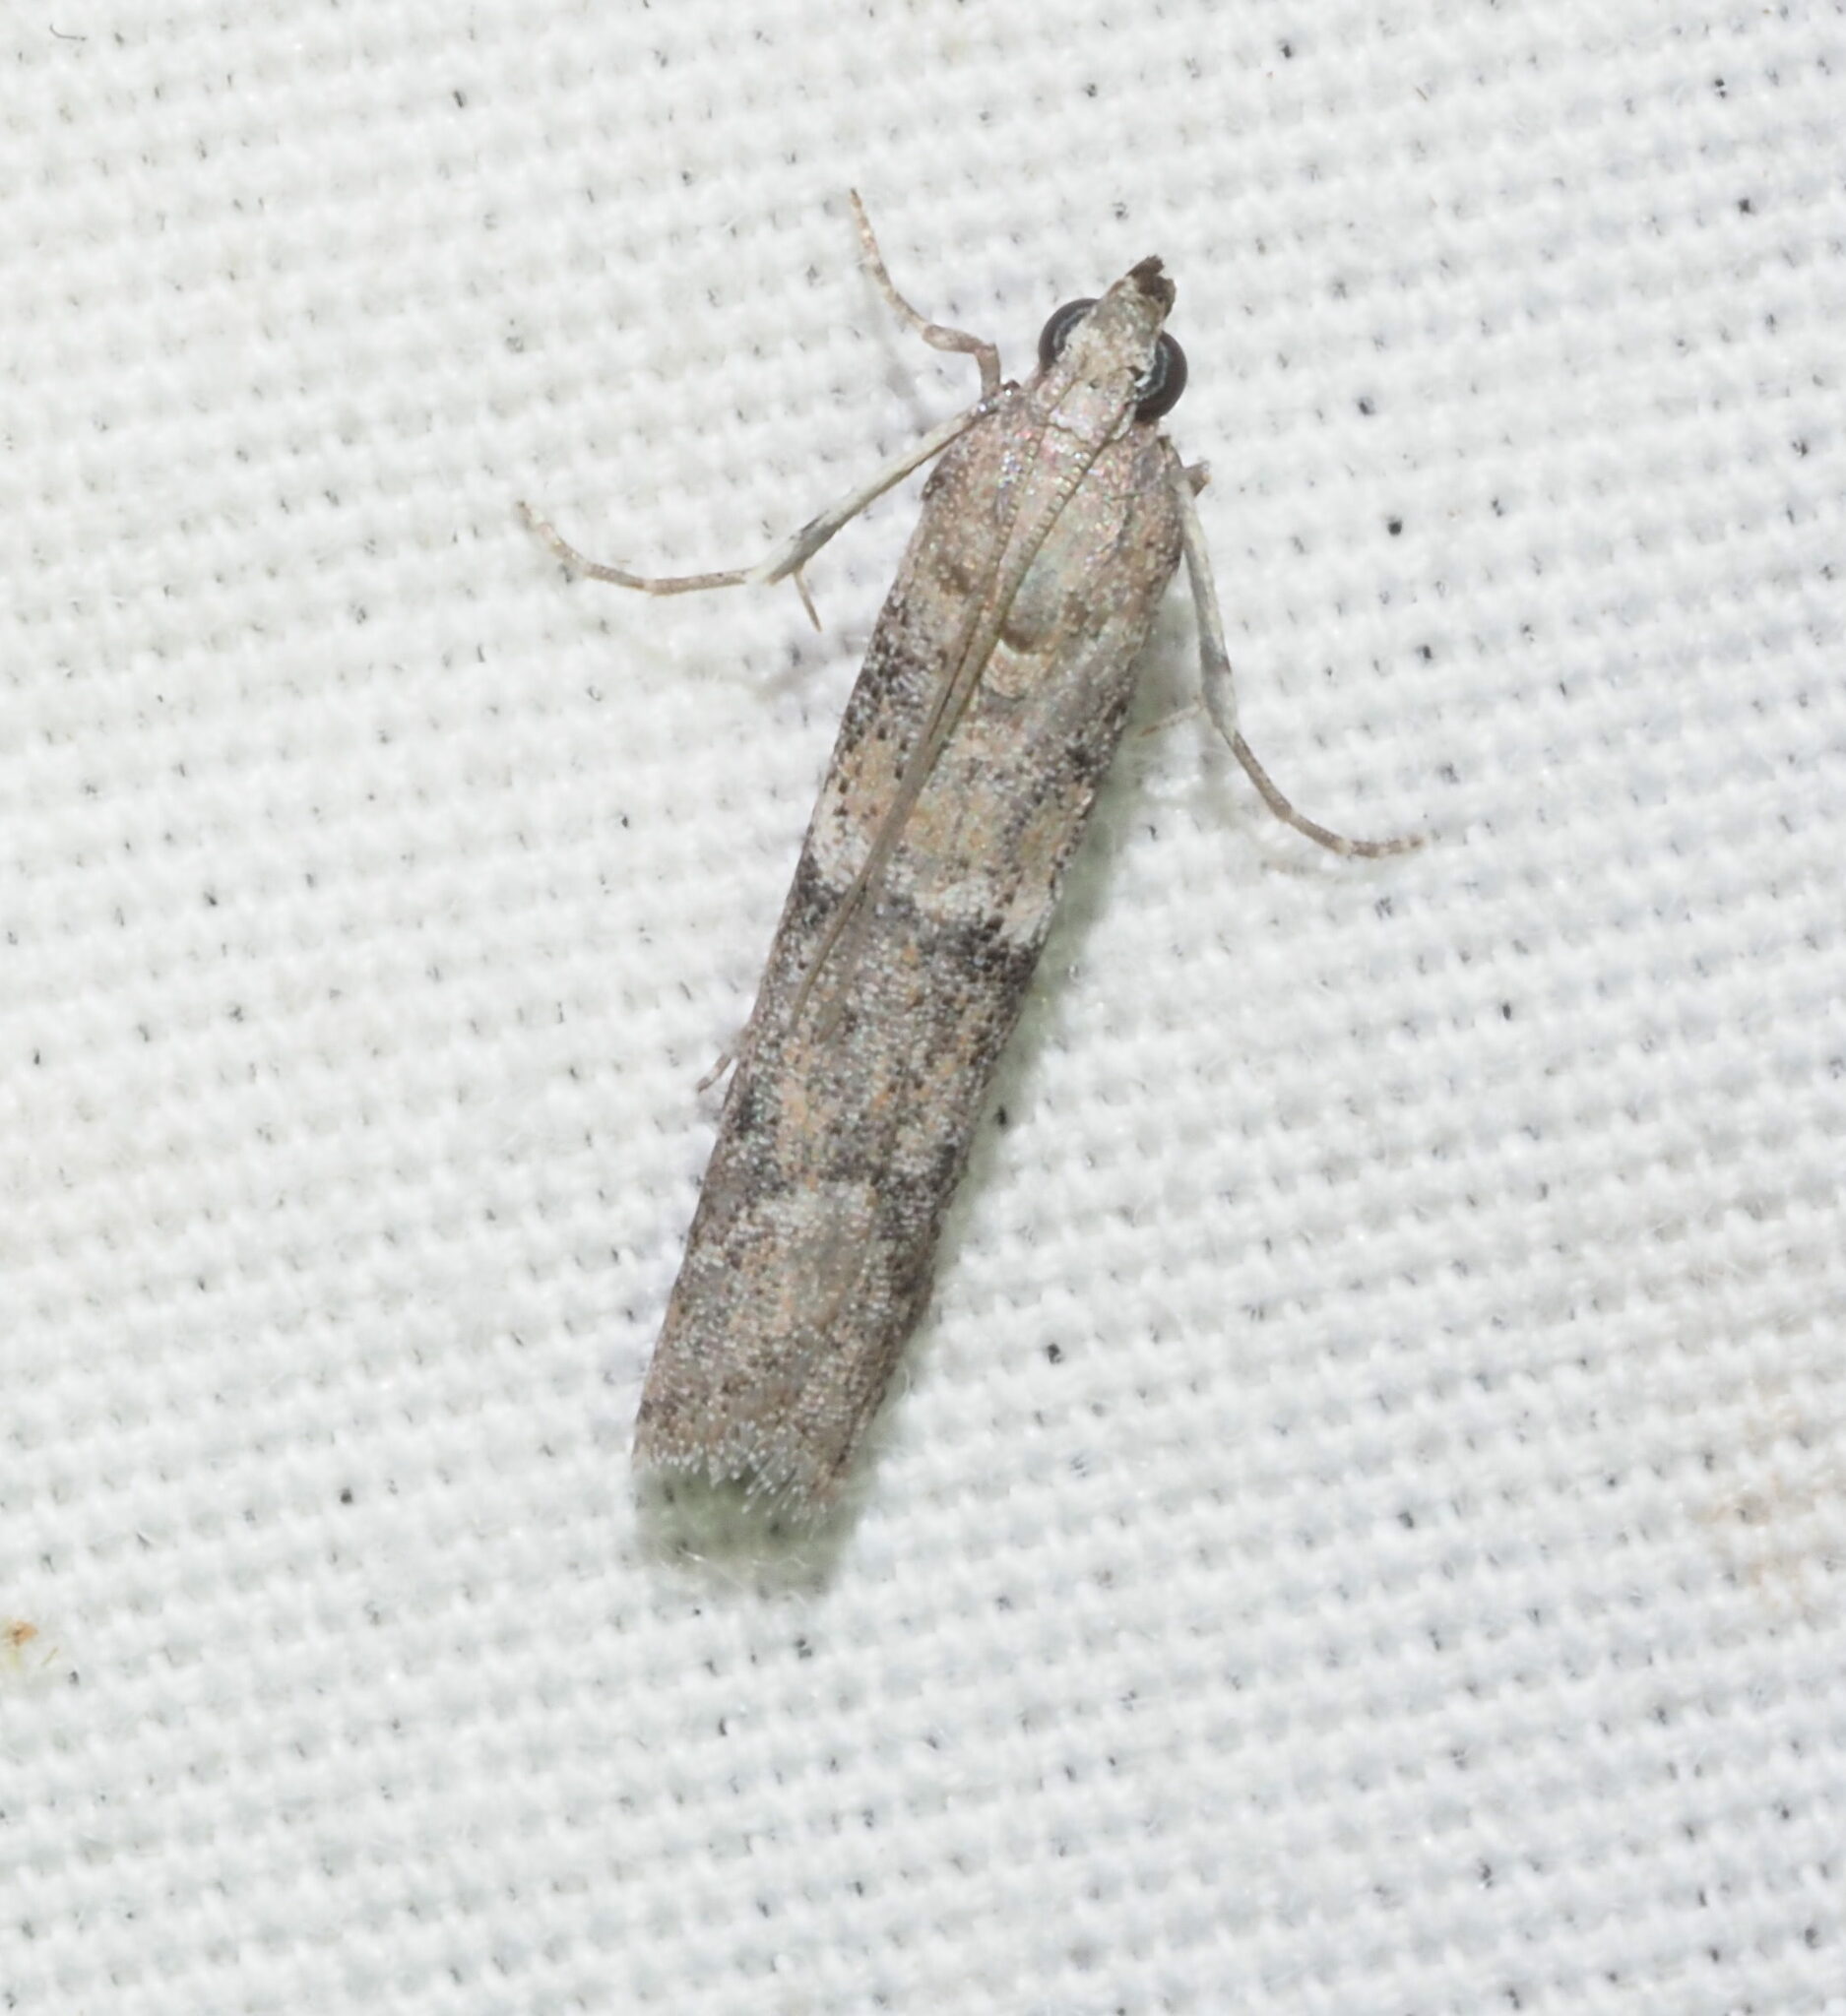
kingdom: Animalia
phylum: Arthropoda
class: Insecta
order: Lepidoptera
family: Pyralidae
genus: Ephestiodes
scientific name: Ephestiodes gilvescentella
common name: Moth
